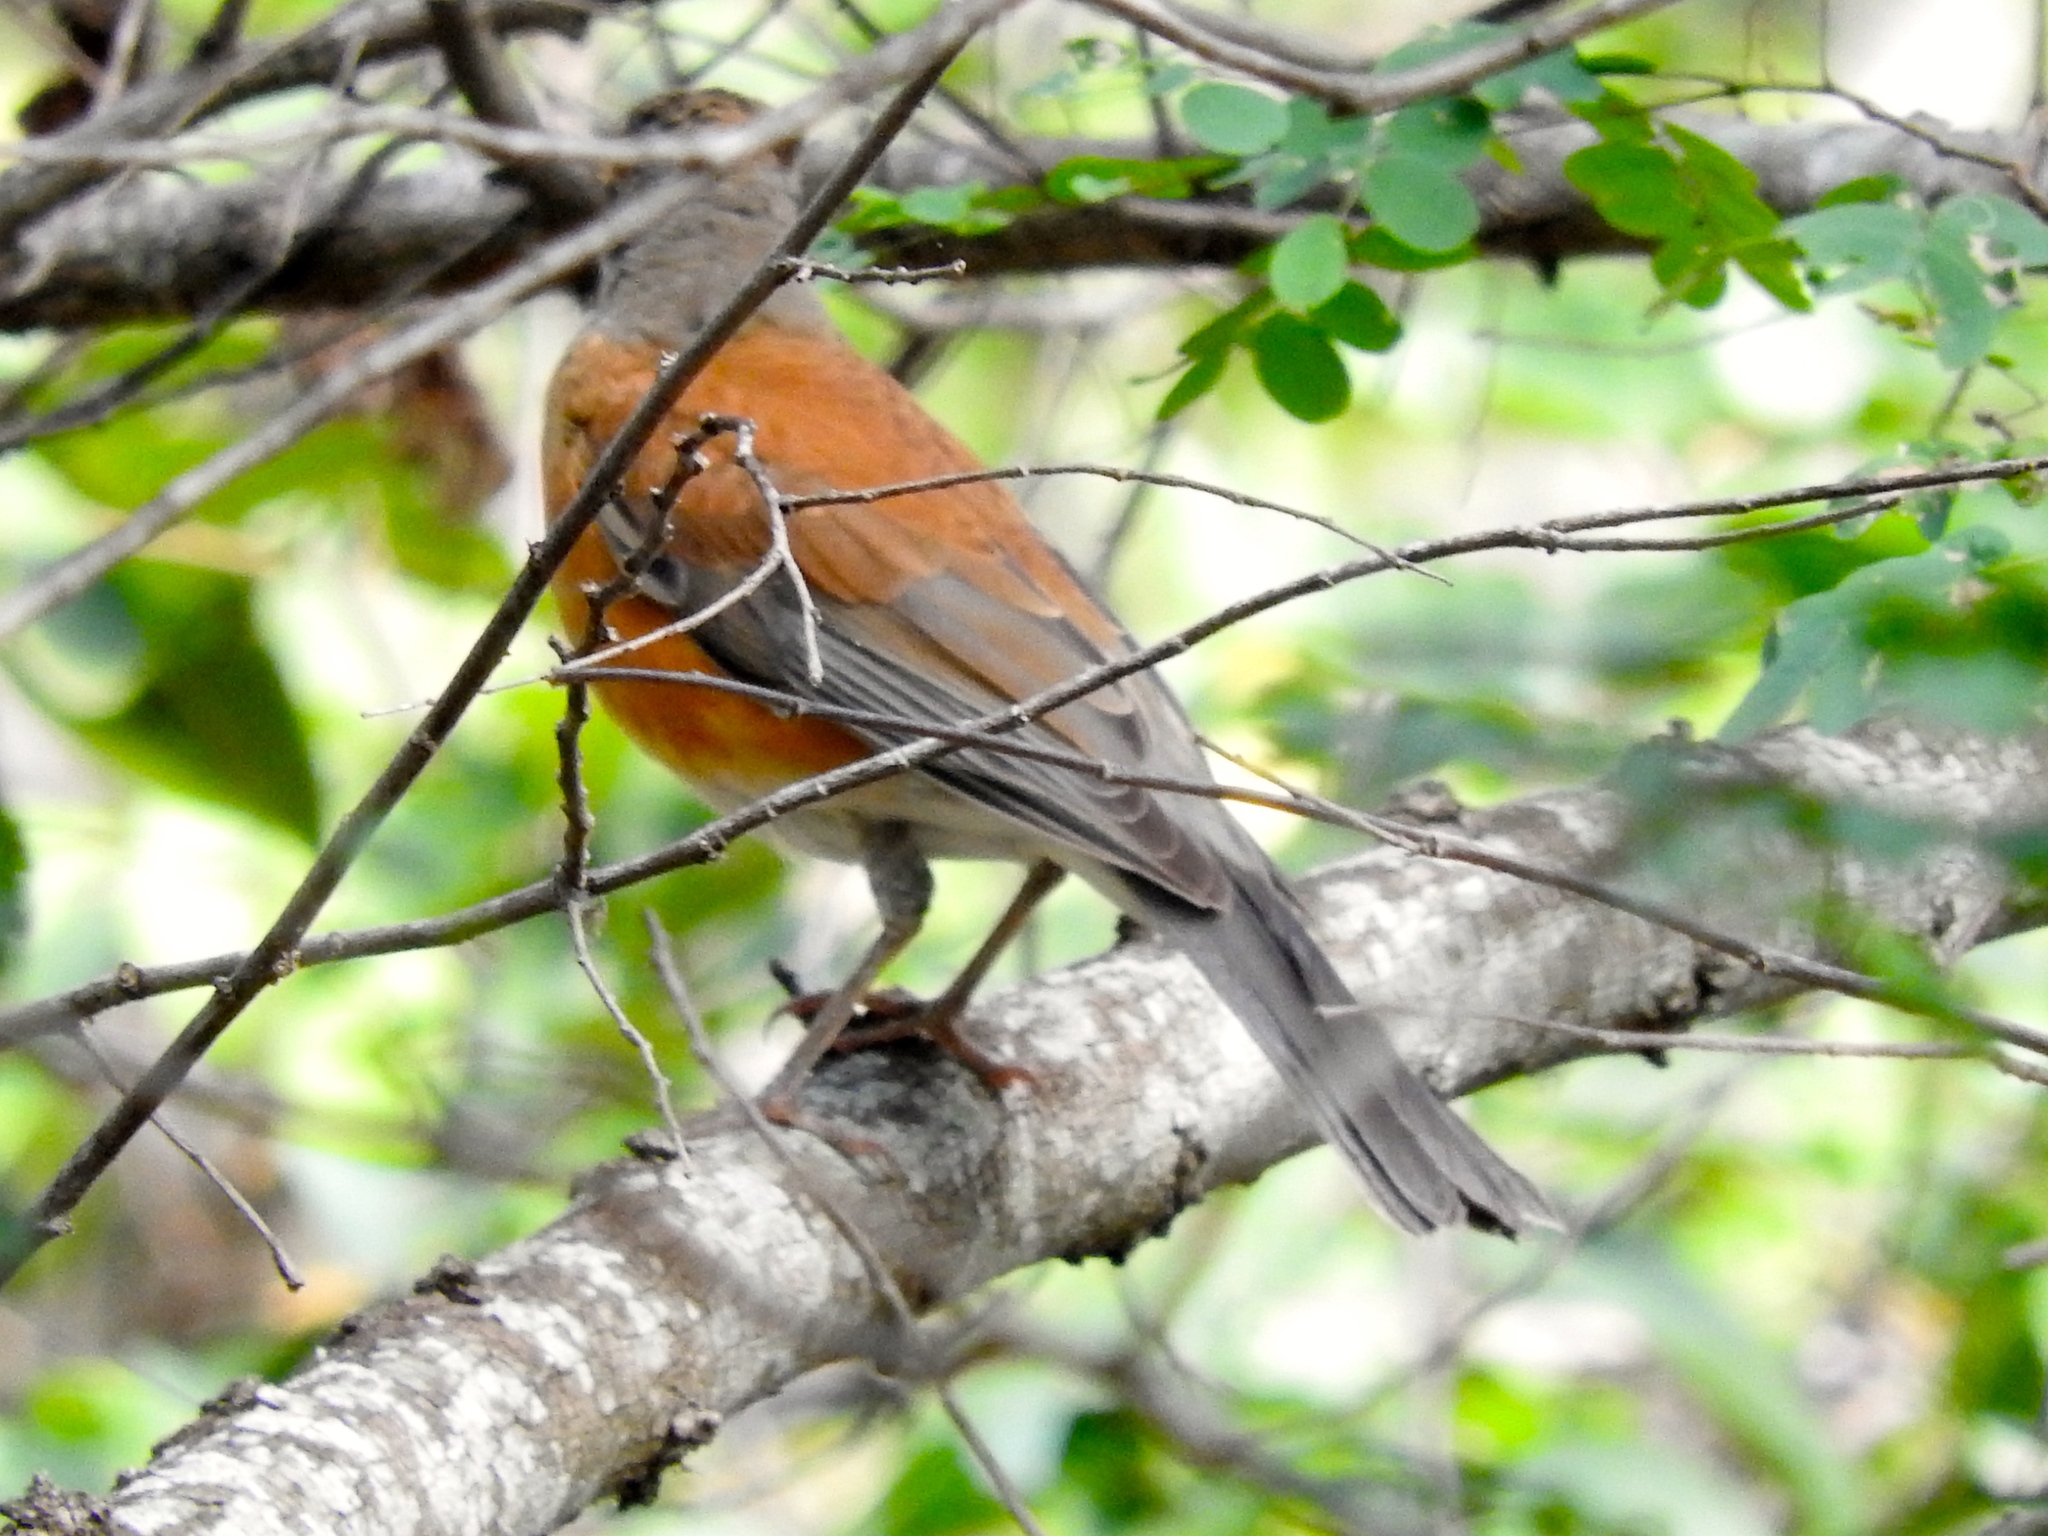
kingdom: Animalia
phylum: Chordata
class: Aves
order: Passeriformes
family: Turdidae
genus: Turdus
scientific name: Turdus rufopalliatus
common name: Rufous-backed robin
